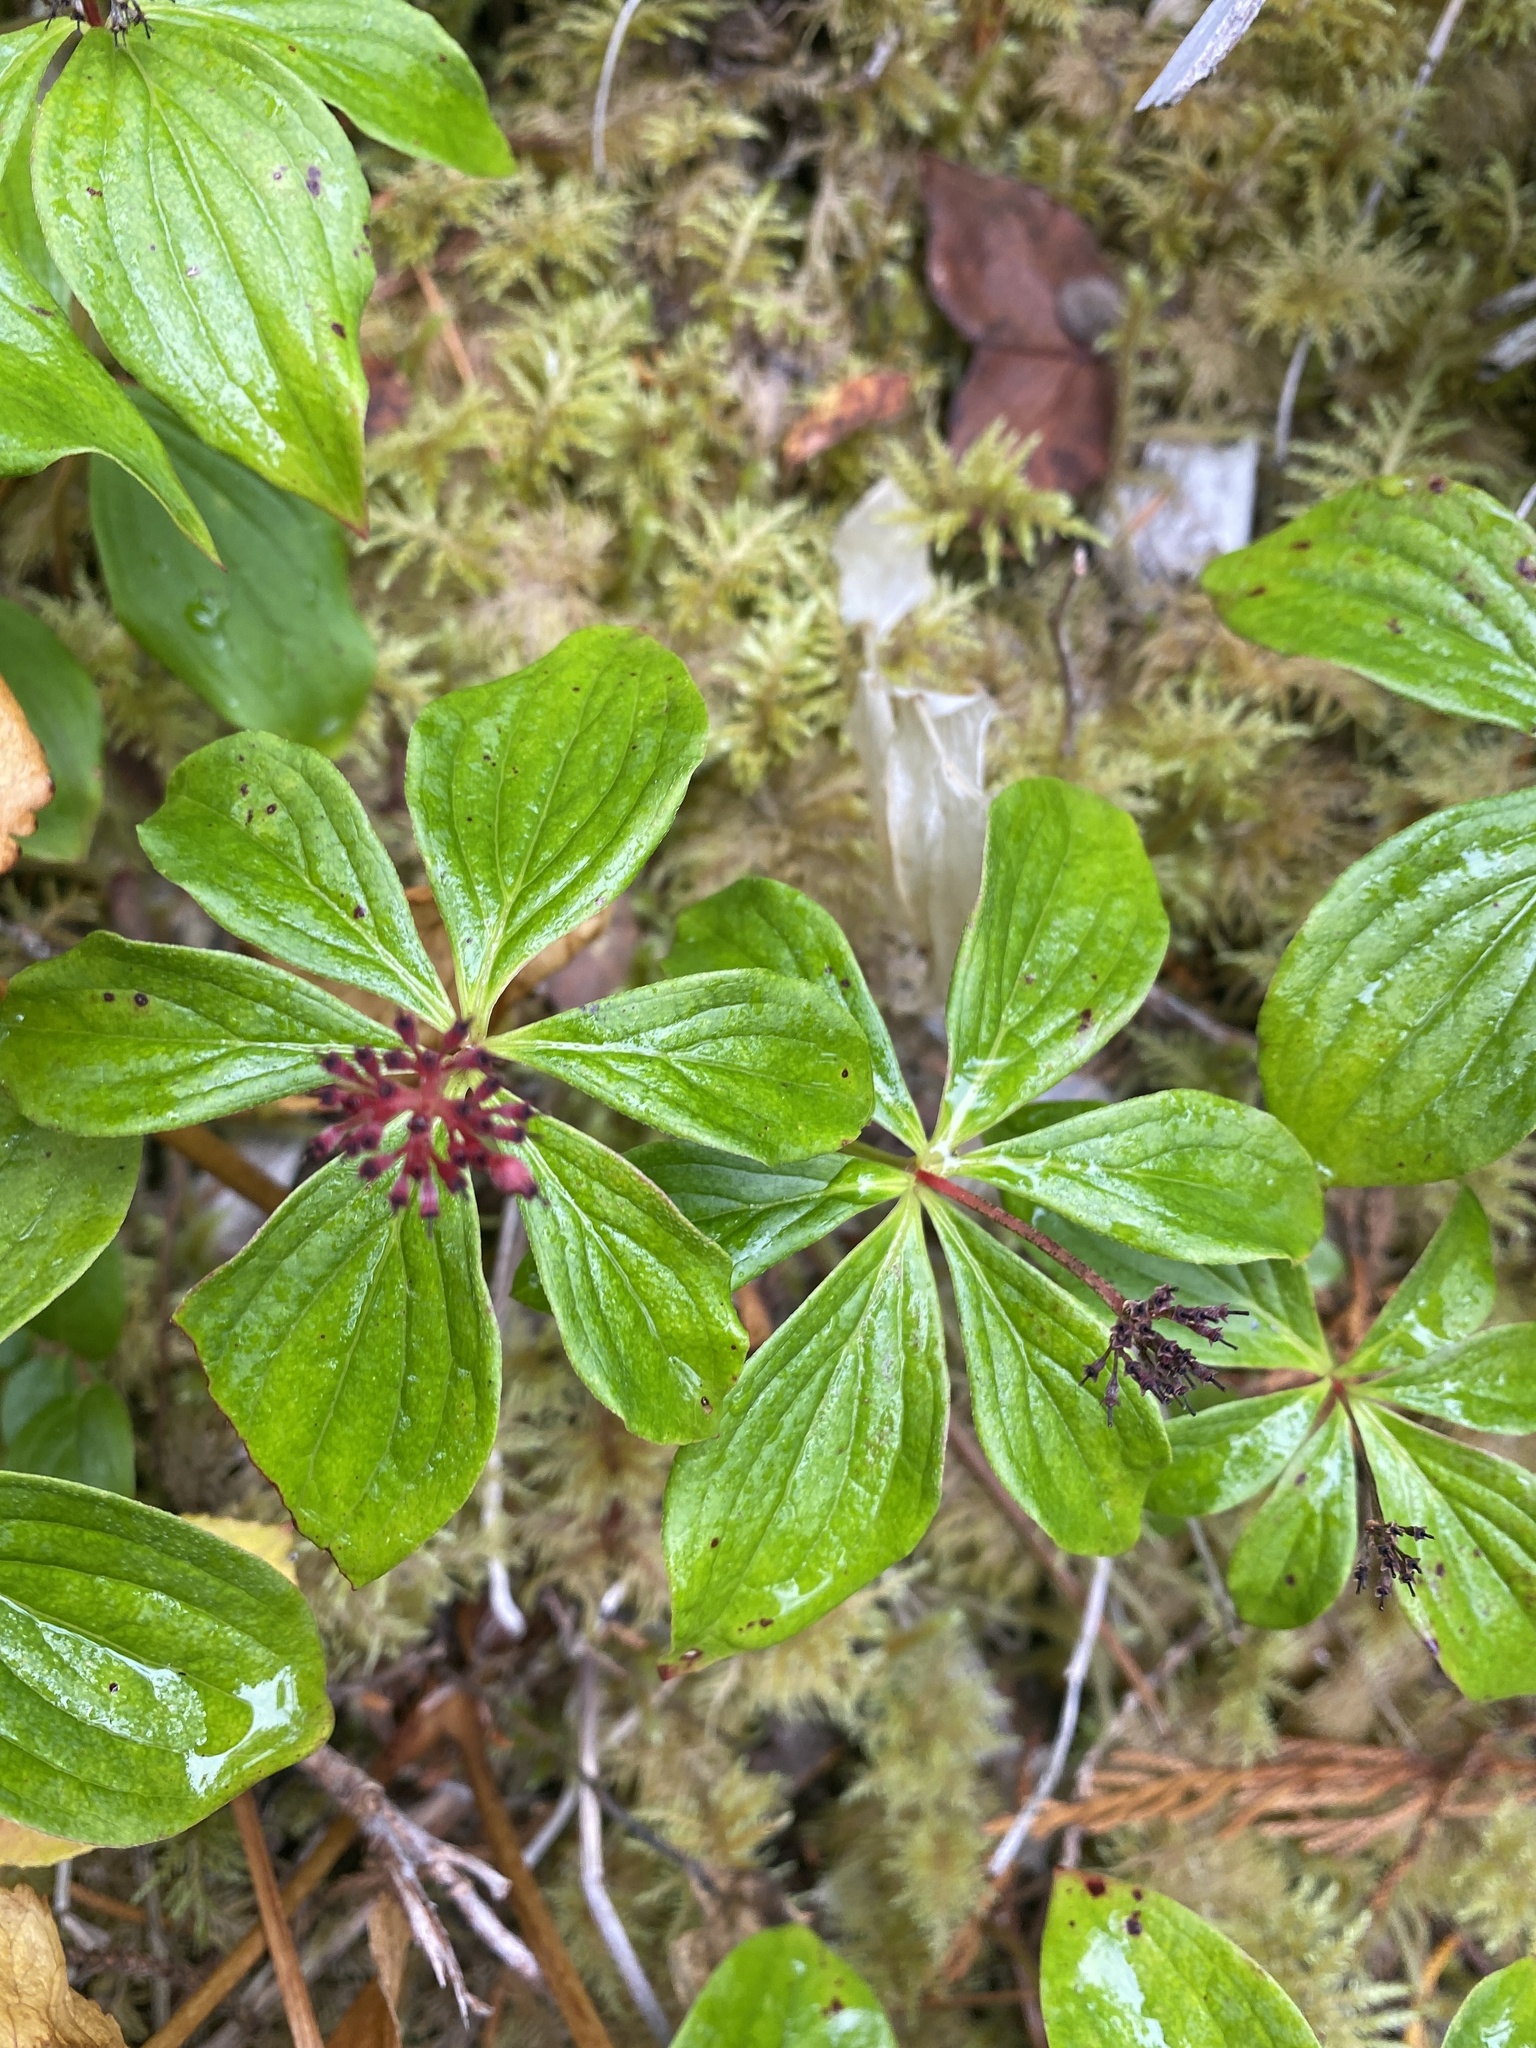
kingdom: Plantae
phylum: Tracheophyta
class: Magnoliopsida
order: Cornales
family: Cornaceae
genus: Cornus
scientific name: Cornus unalaschkensis
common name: Alaska bunchberry
